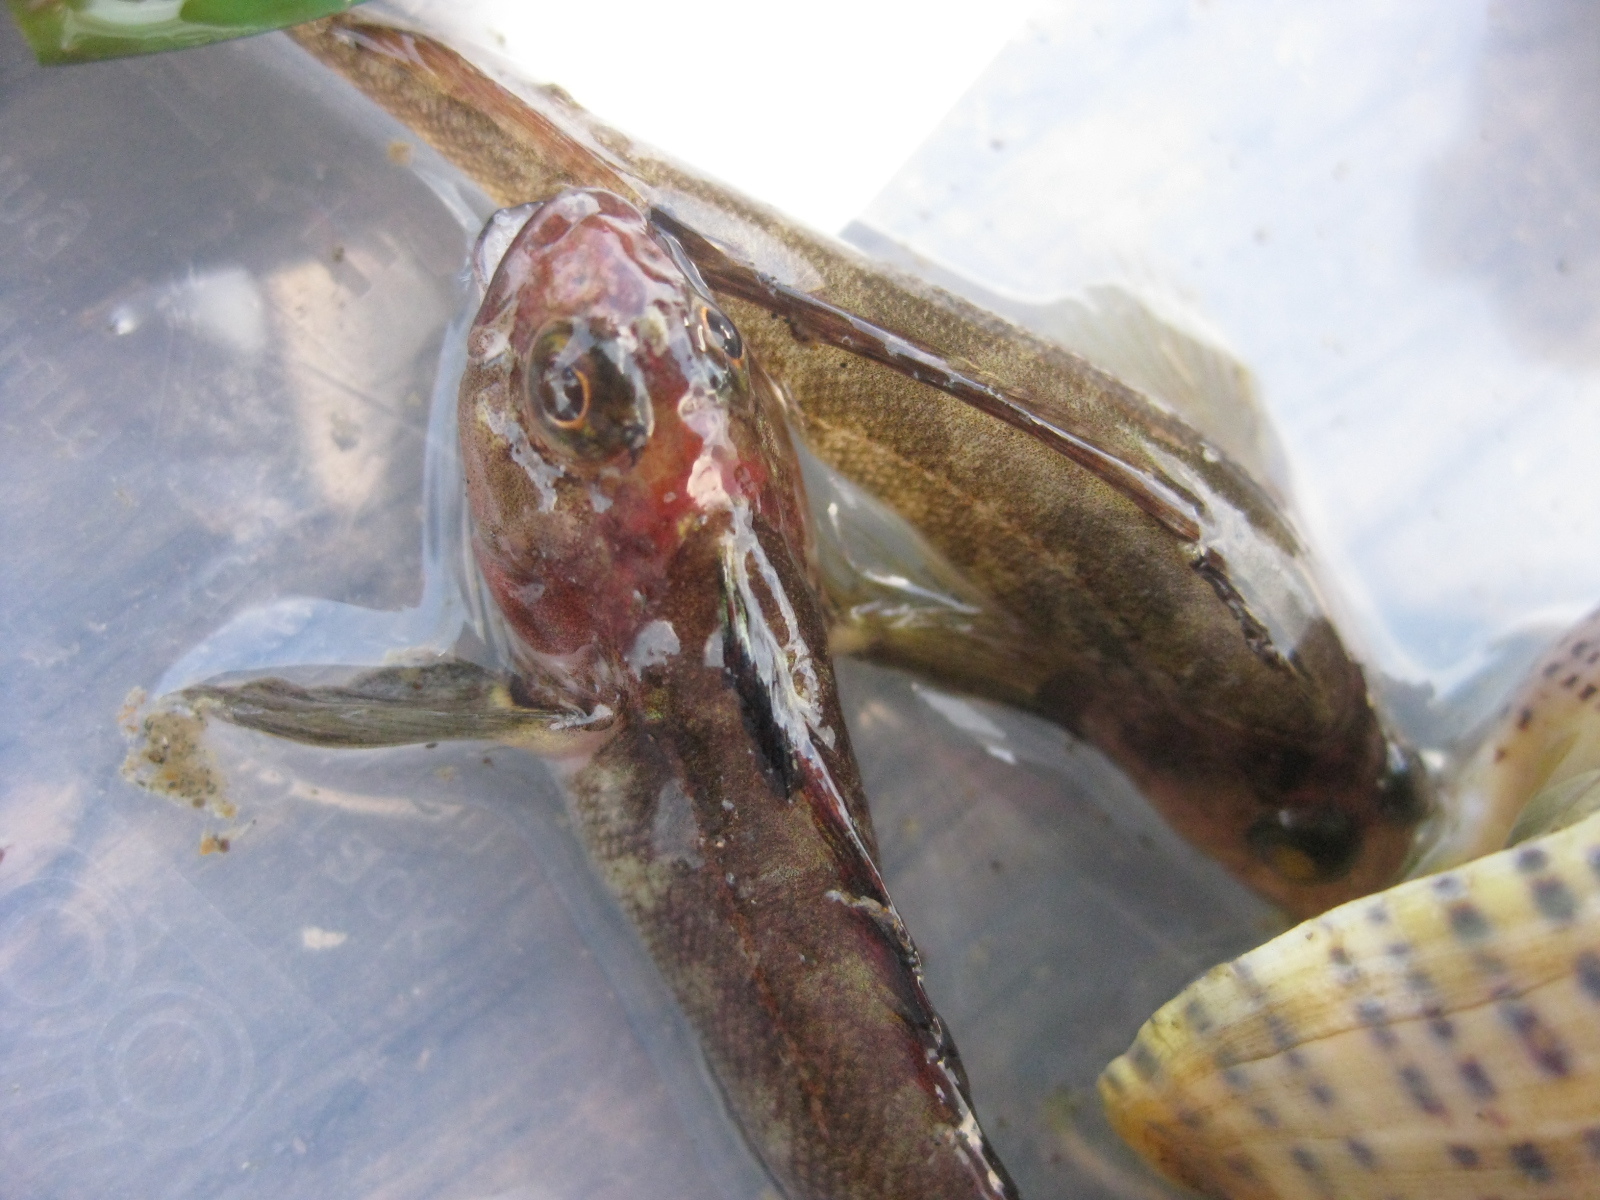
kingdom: Animalia
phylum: Chordata
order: Perciformes
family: Tripterygiidae
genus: Forsterygion
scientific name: Forsterygion capito
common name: Spotted robust triplefin
